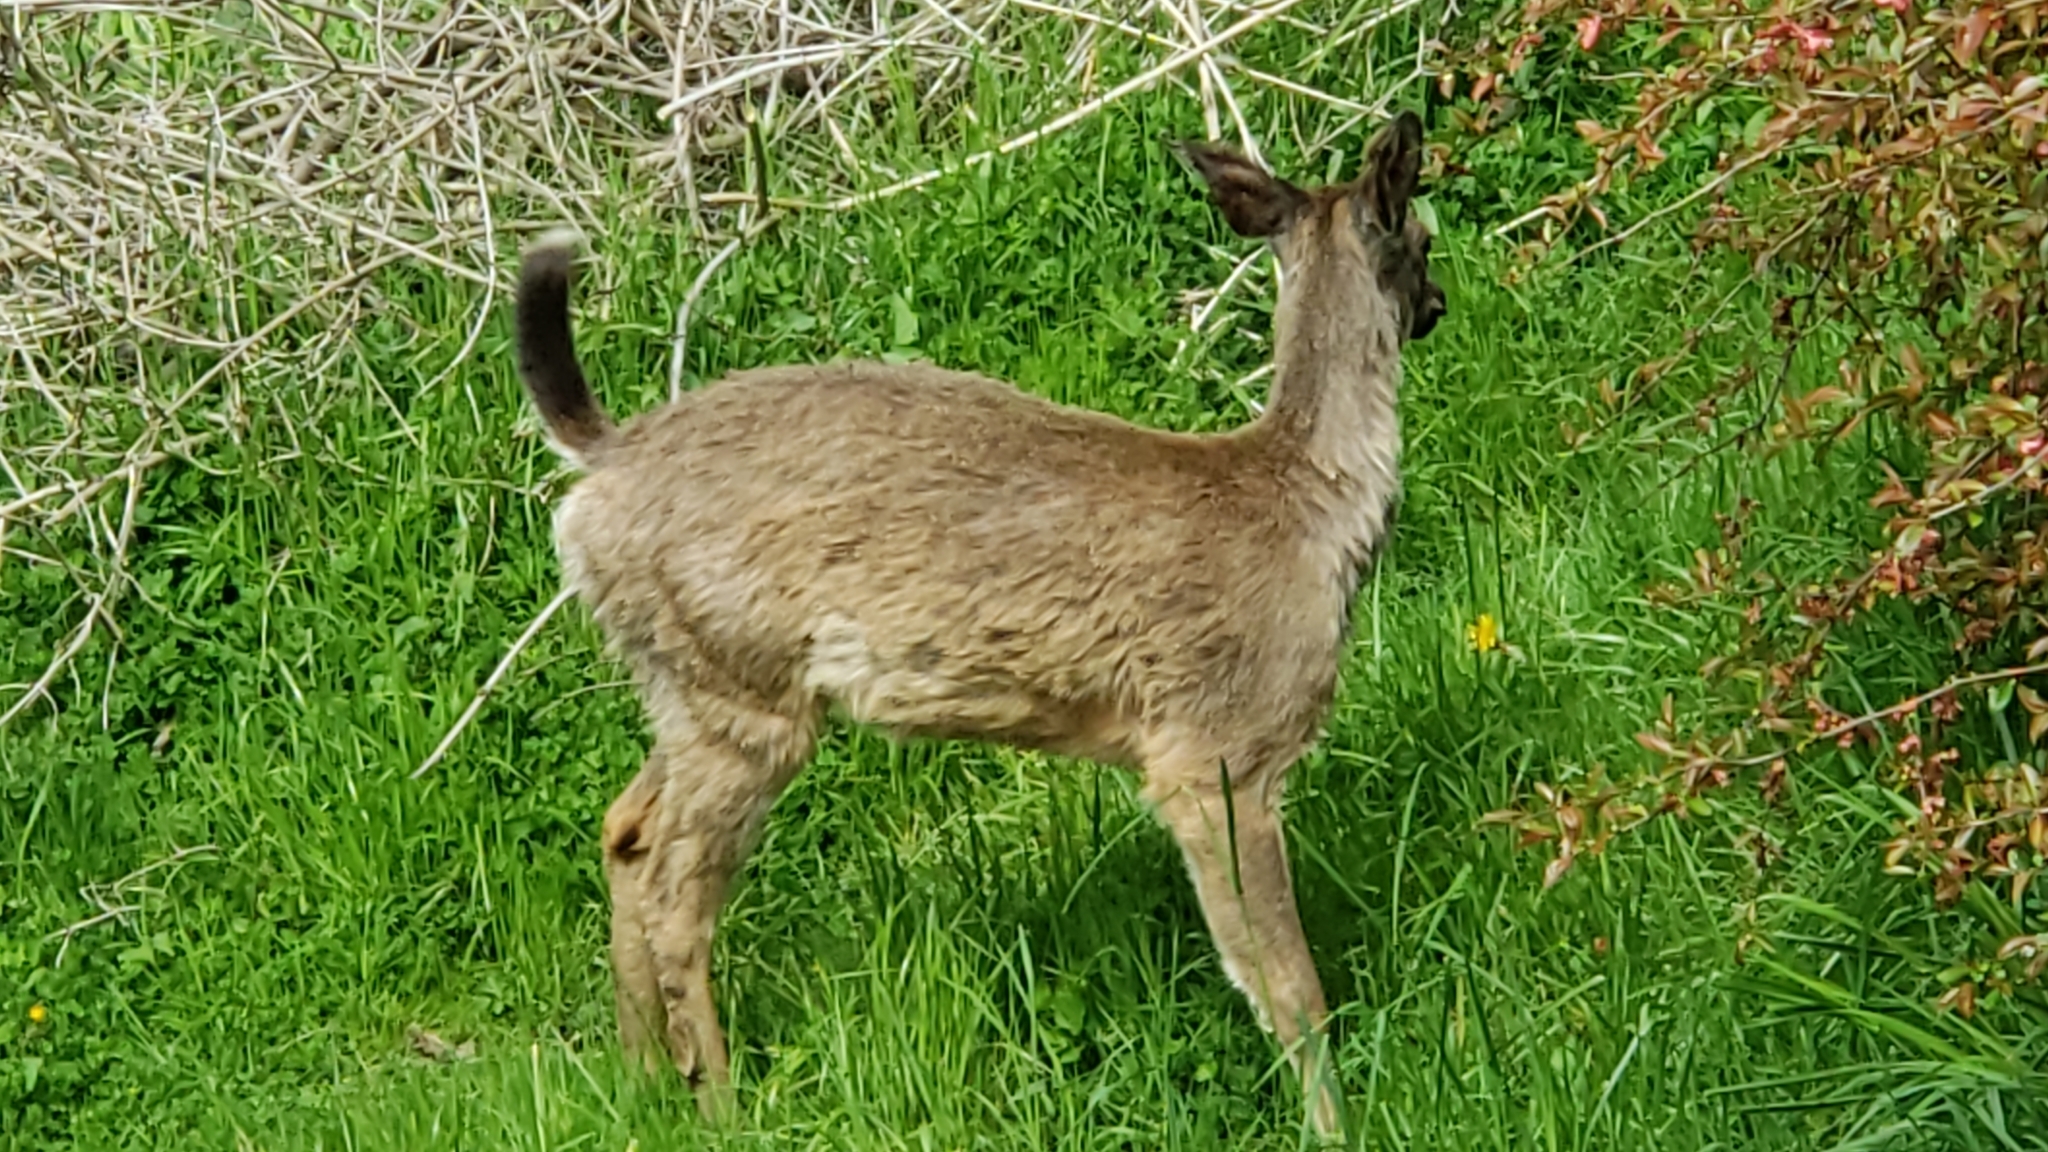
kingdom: Animalia
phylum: Chordata
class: Mammalia
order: Artiodactyla
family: Cervidae
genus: Odocoileus
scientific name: Odocoileus hemionus
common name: Mule deer
